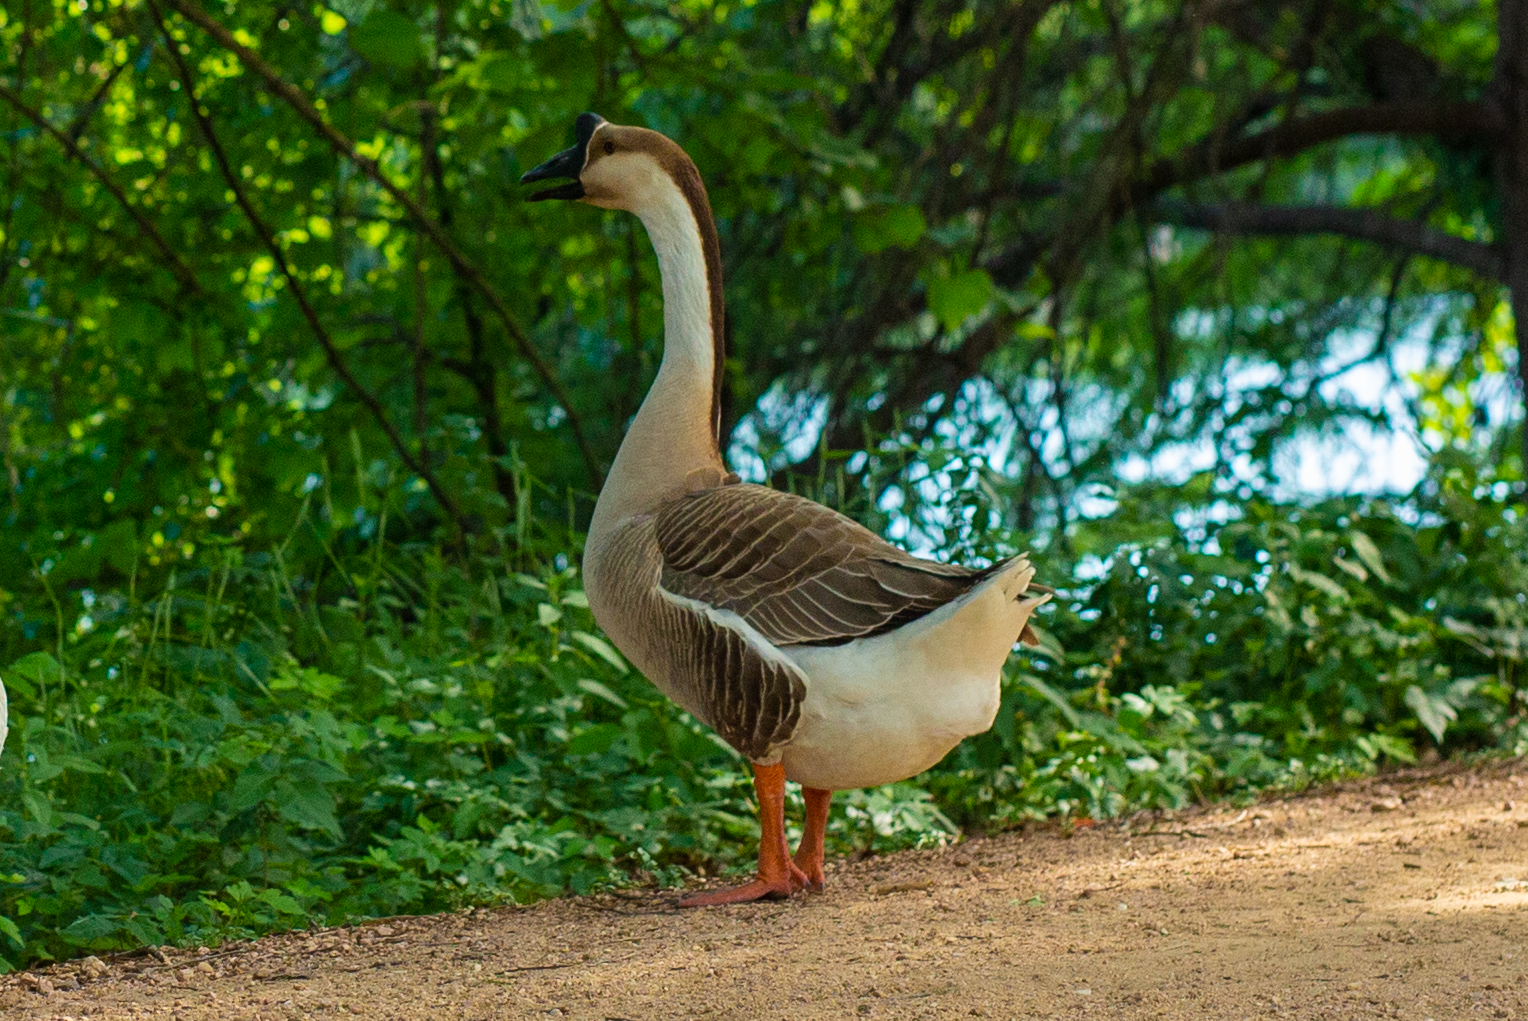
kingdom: Animalia
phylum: Chordata
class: Aves
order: Anseriformes
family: Anatidae
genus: Anser
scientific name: Anser cygnoides
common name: Swan goose
